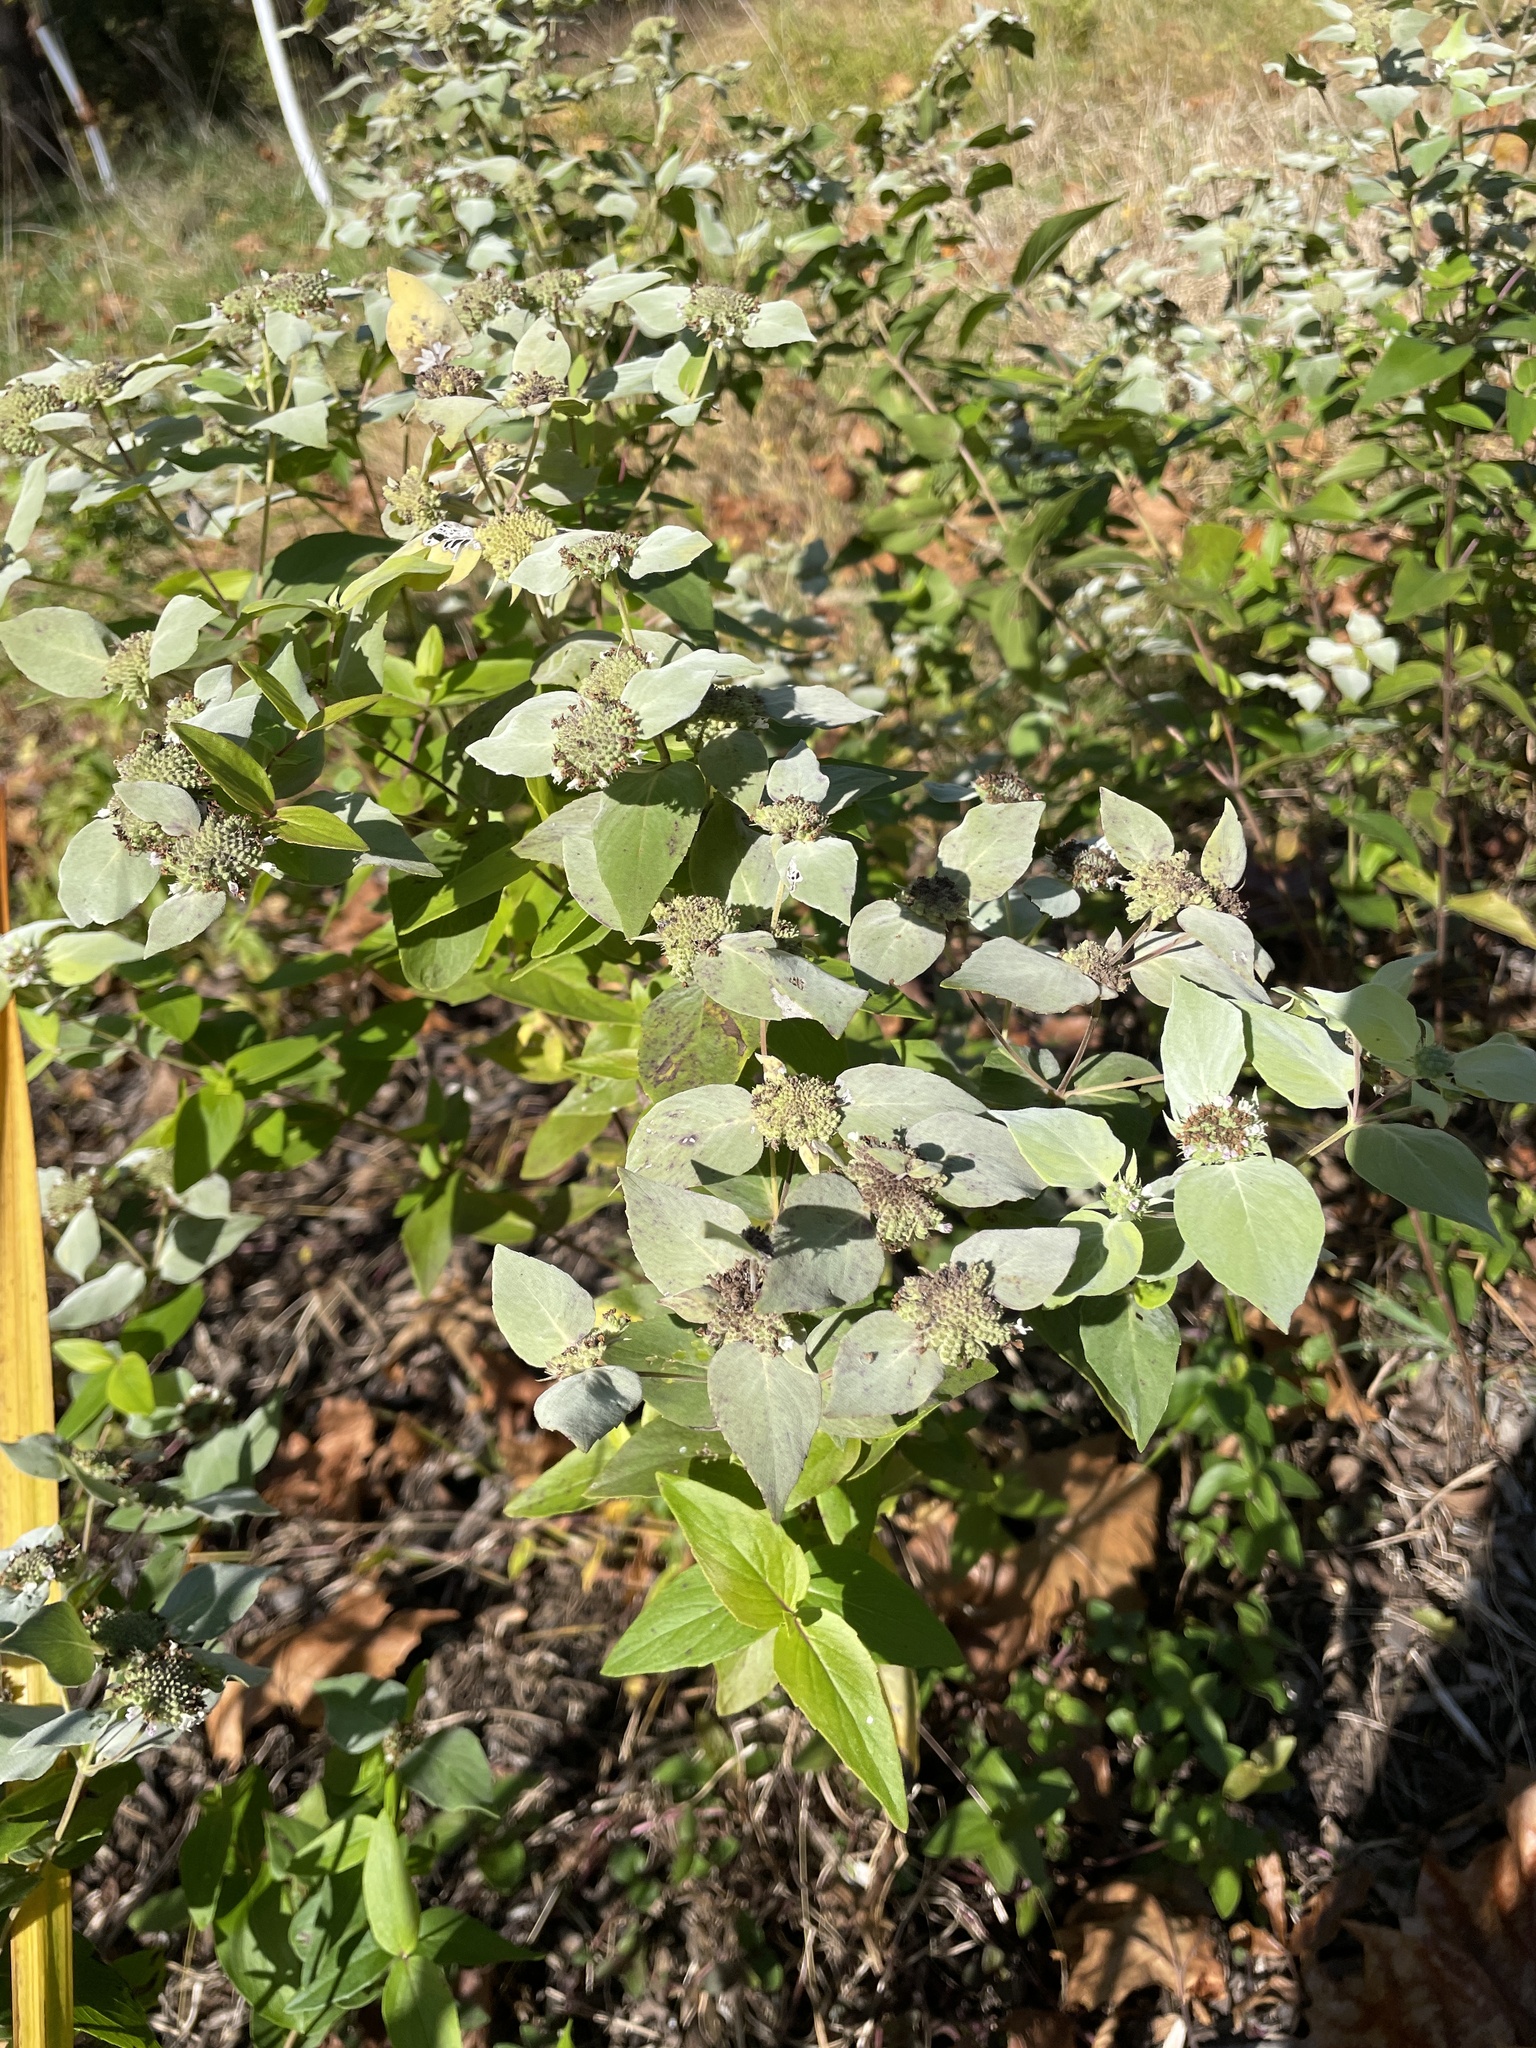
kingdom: Plantae
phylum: Tracheophyta
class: Magnoliopsida
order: Lamiales
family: Lamiaceae
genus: Pycnanthemum
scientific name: Pycnanthemum muticum
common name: Blunt mountain-mint
